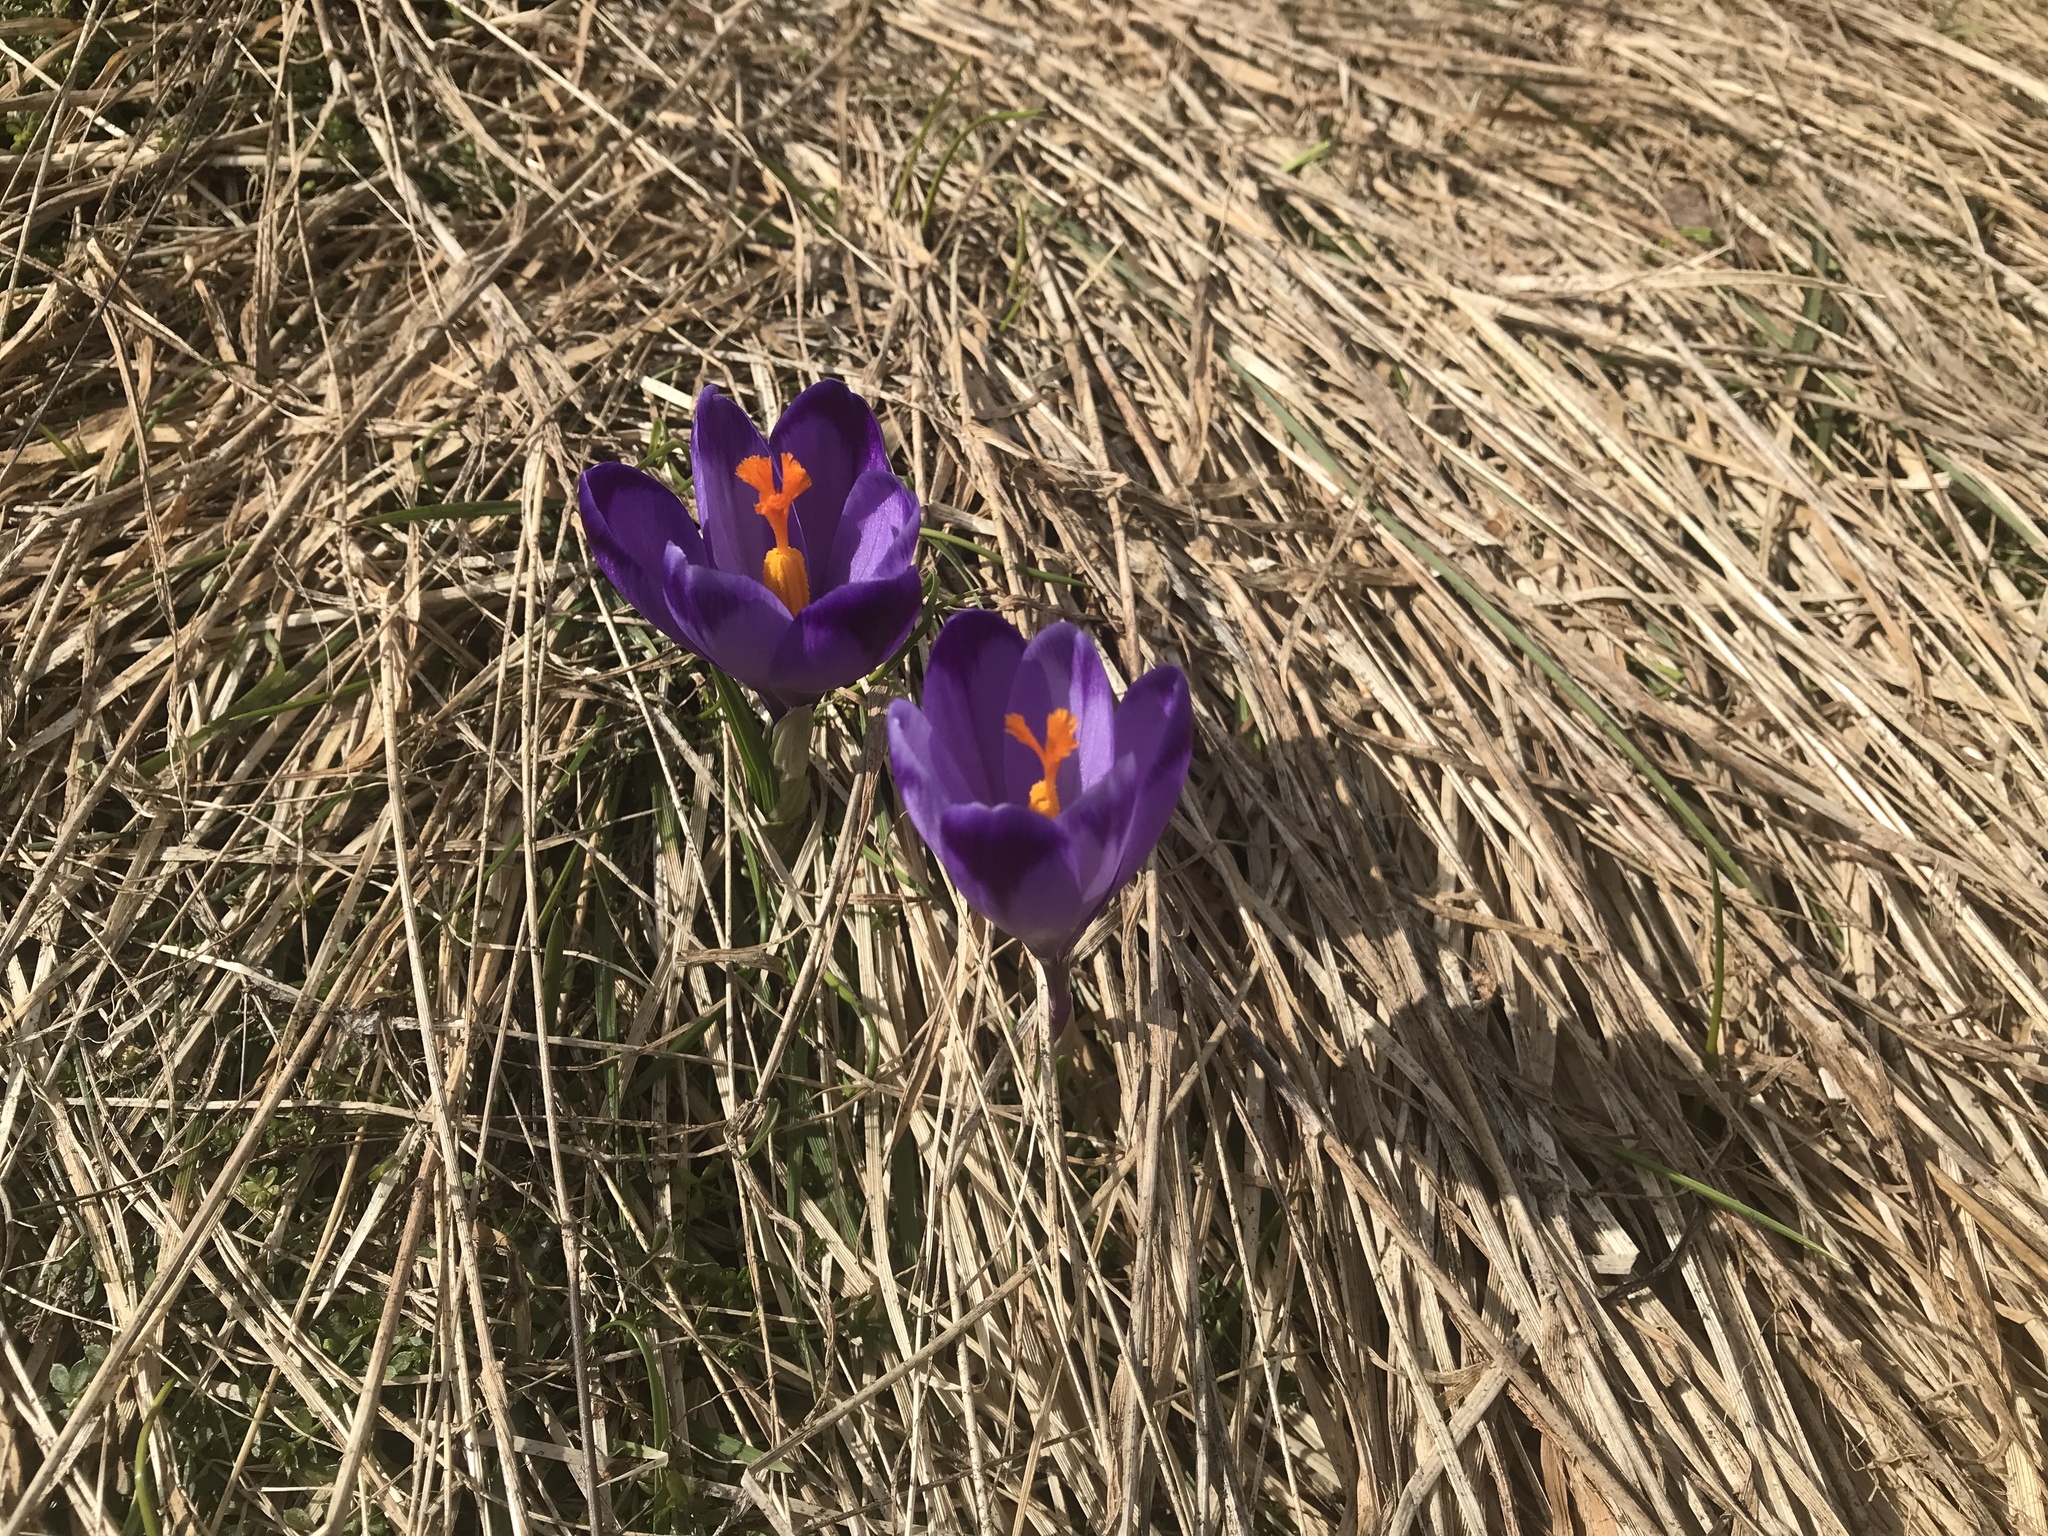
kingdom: Plantae
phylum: Tracheophyta
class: Liliopsida
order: Asparagales
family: Iridaceae
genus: Crocus
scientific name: Crocus heuffelianus
